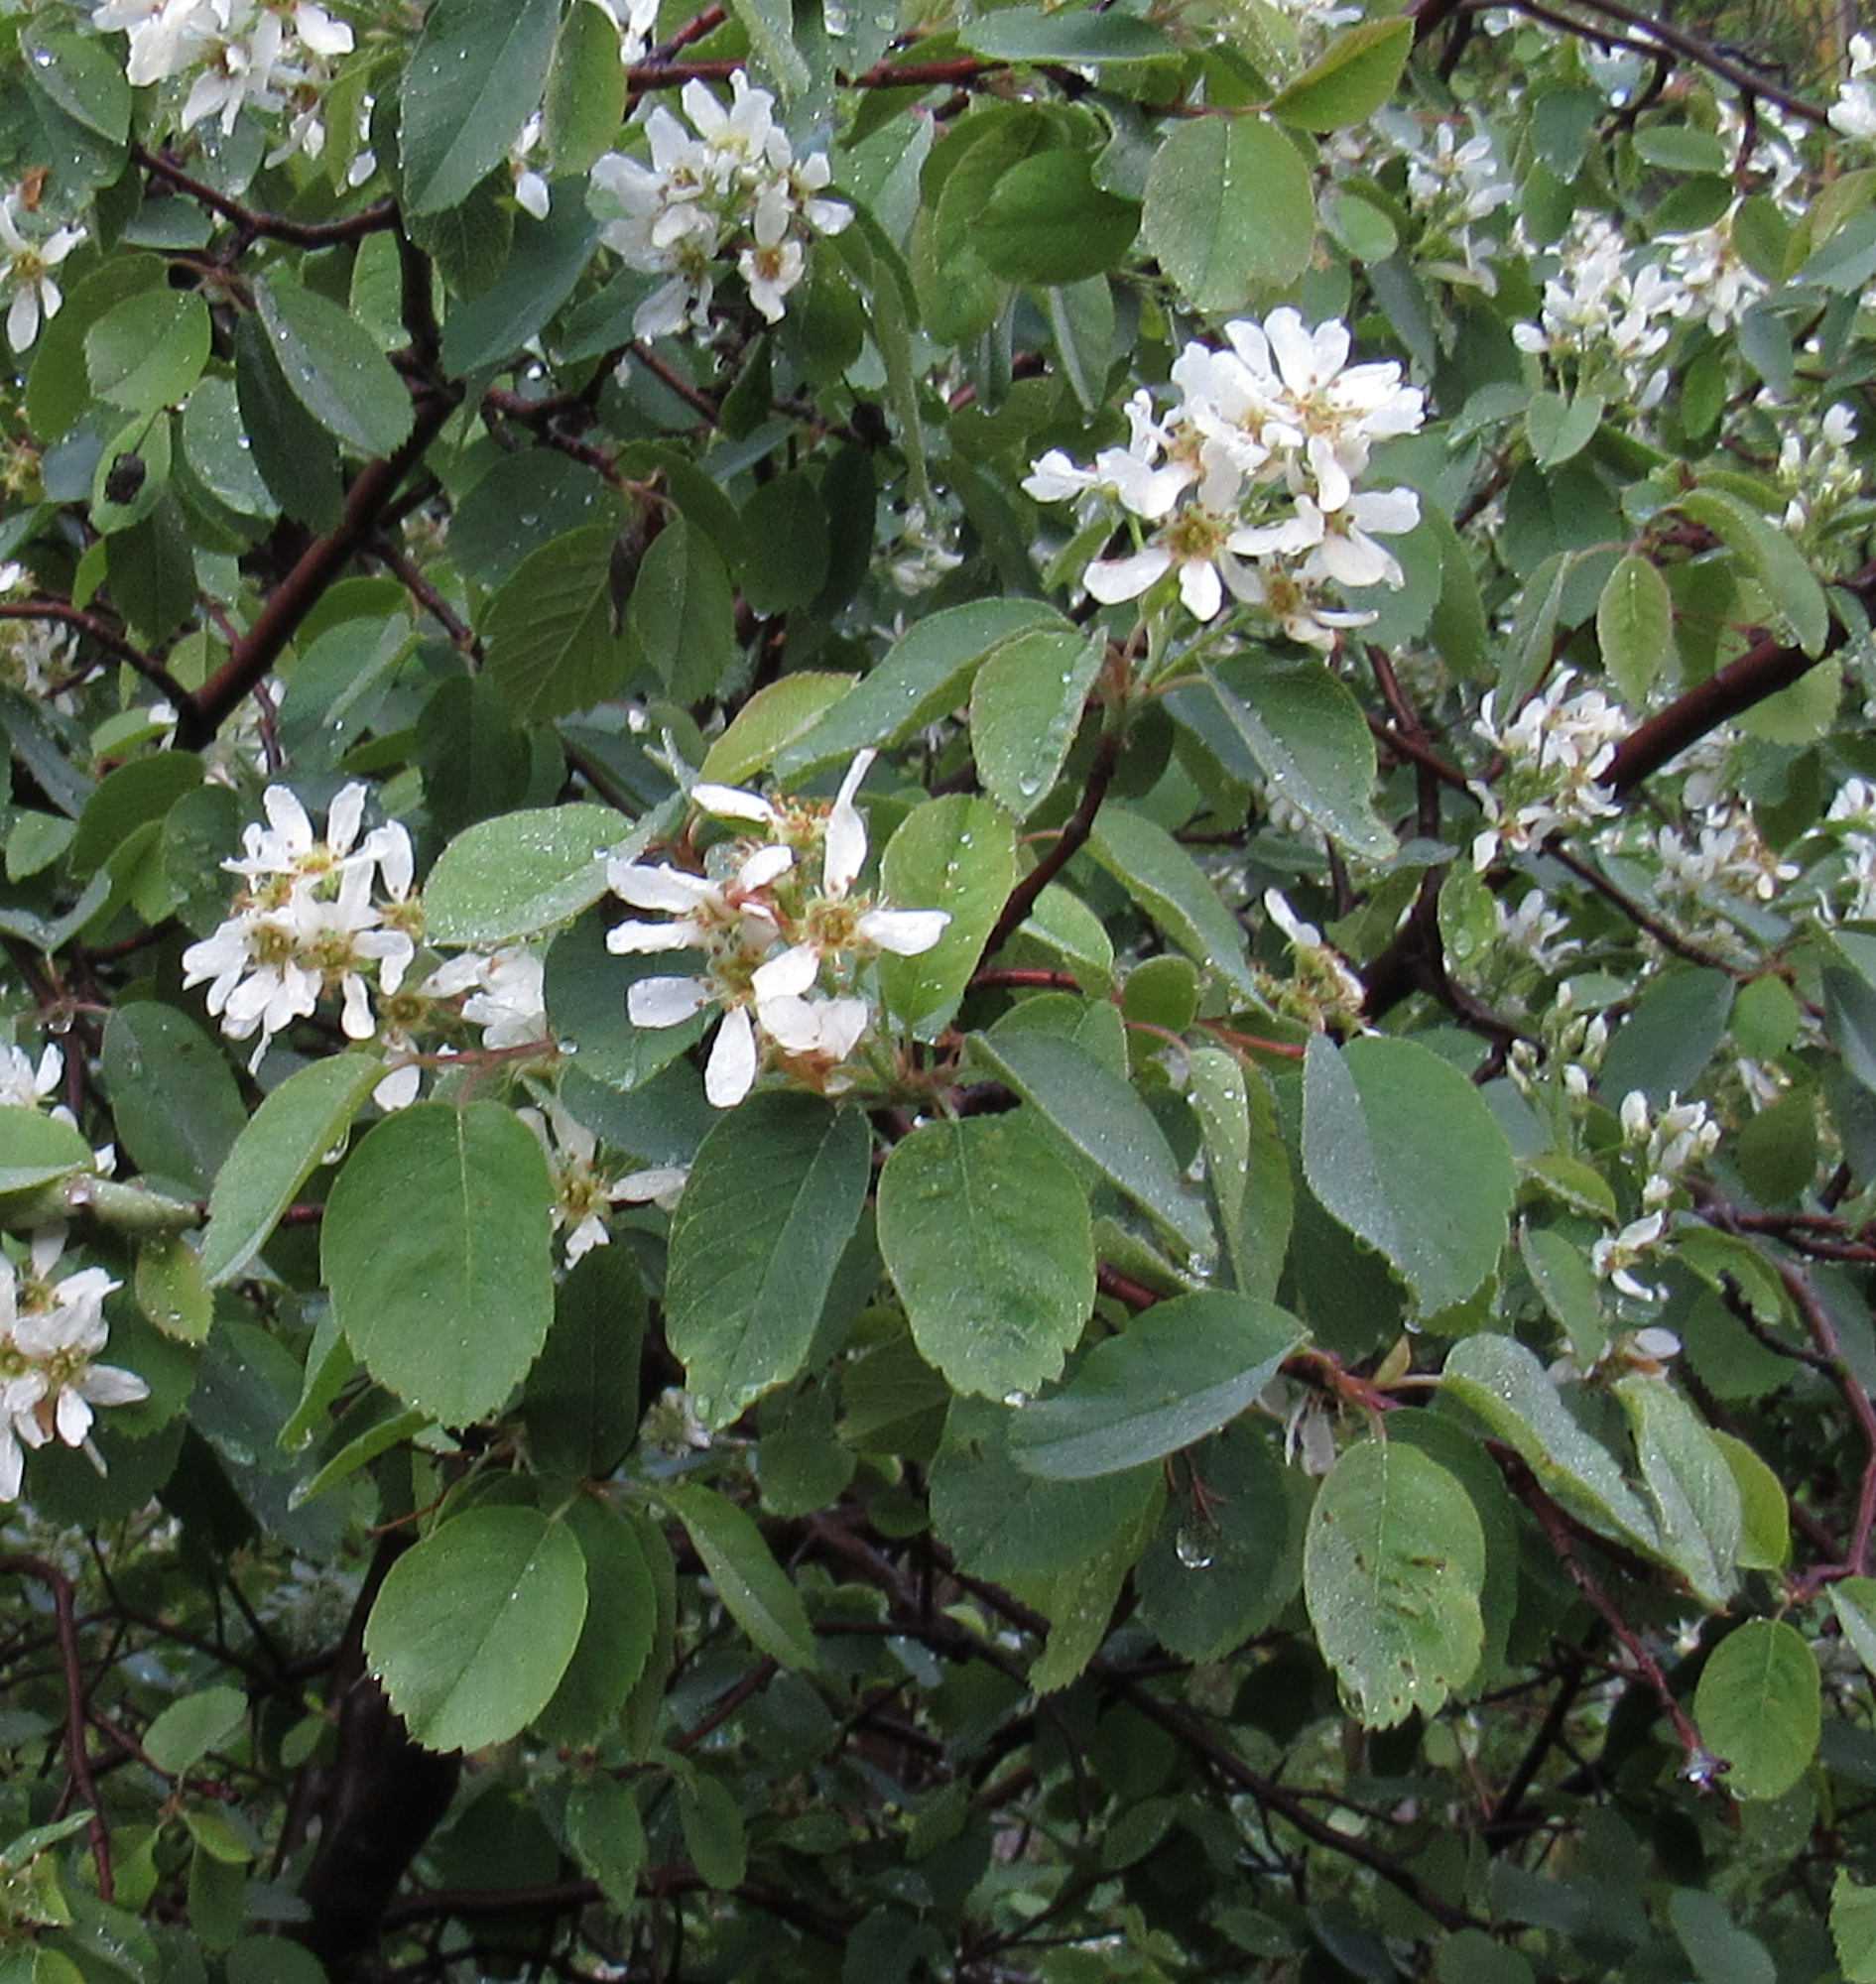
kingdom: Plantae
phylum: Tracheophyta
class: Magnoliopsida
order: Rosales
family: Rosaceae
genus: Amelanchier
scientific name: Amelanchier alnifolia
